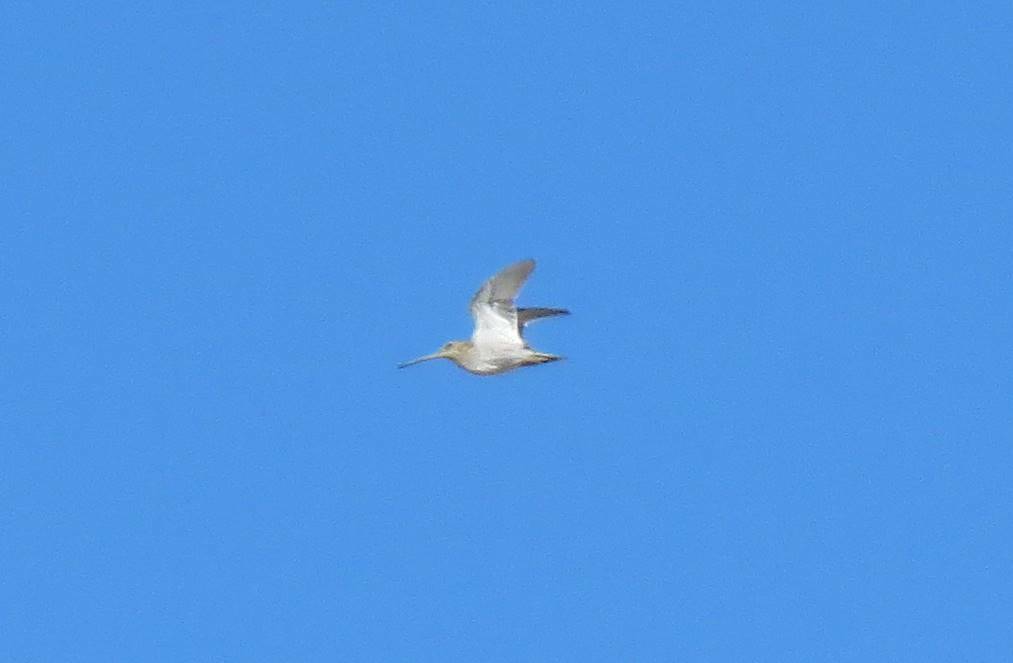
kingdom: Animalia
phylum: Chordata
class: Aves
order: Charadriiformes
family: Scolopacidae
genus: Gallinago
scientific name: Gallinago gallinago
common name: Common snipe
